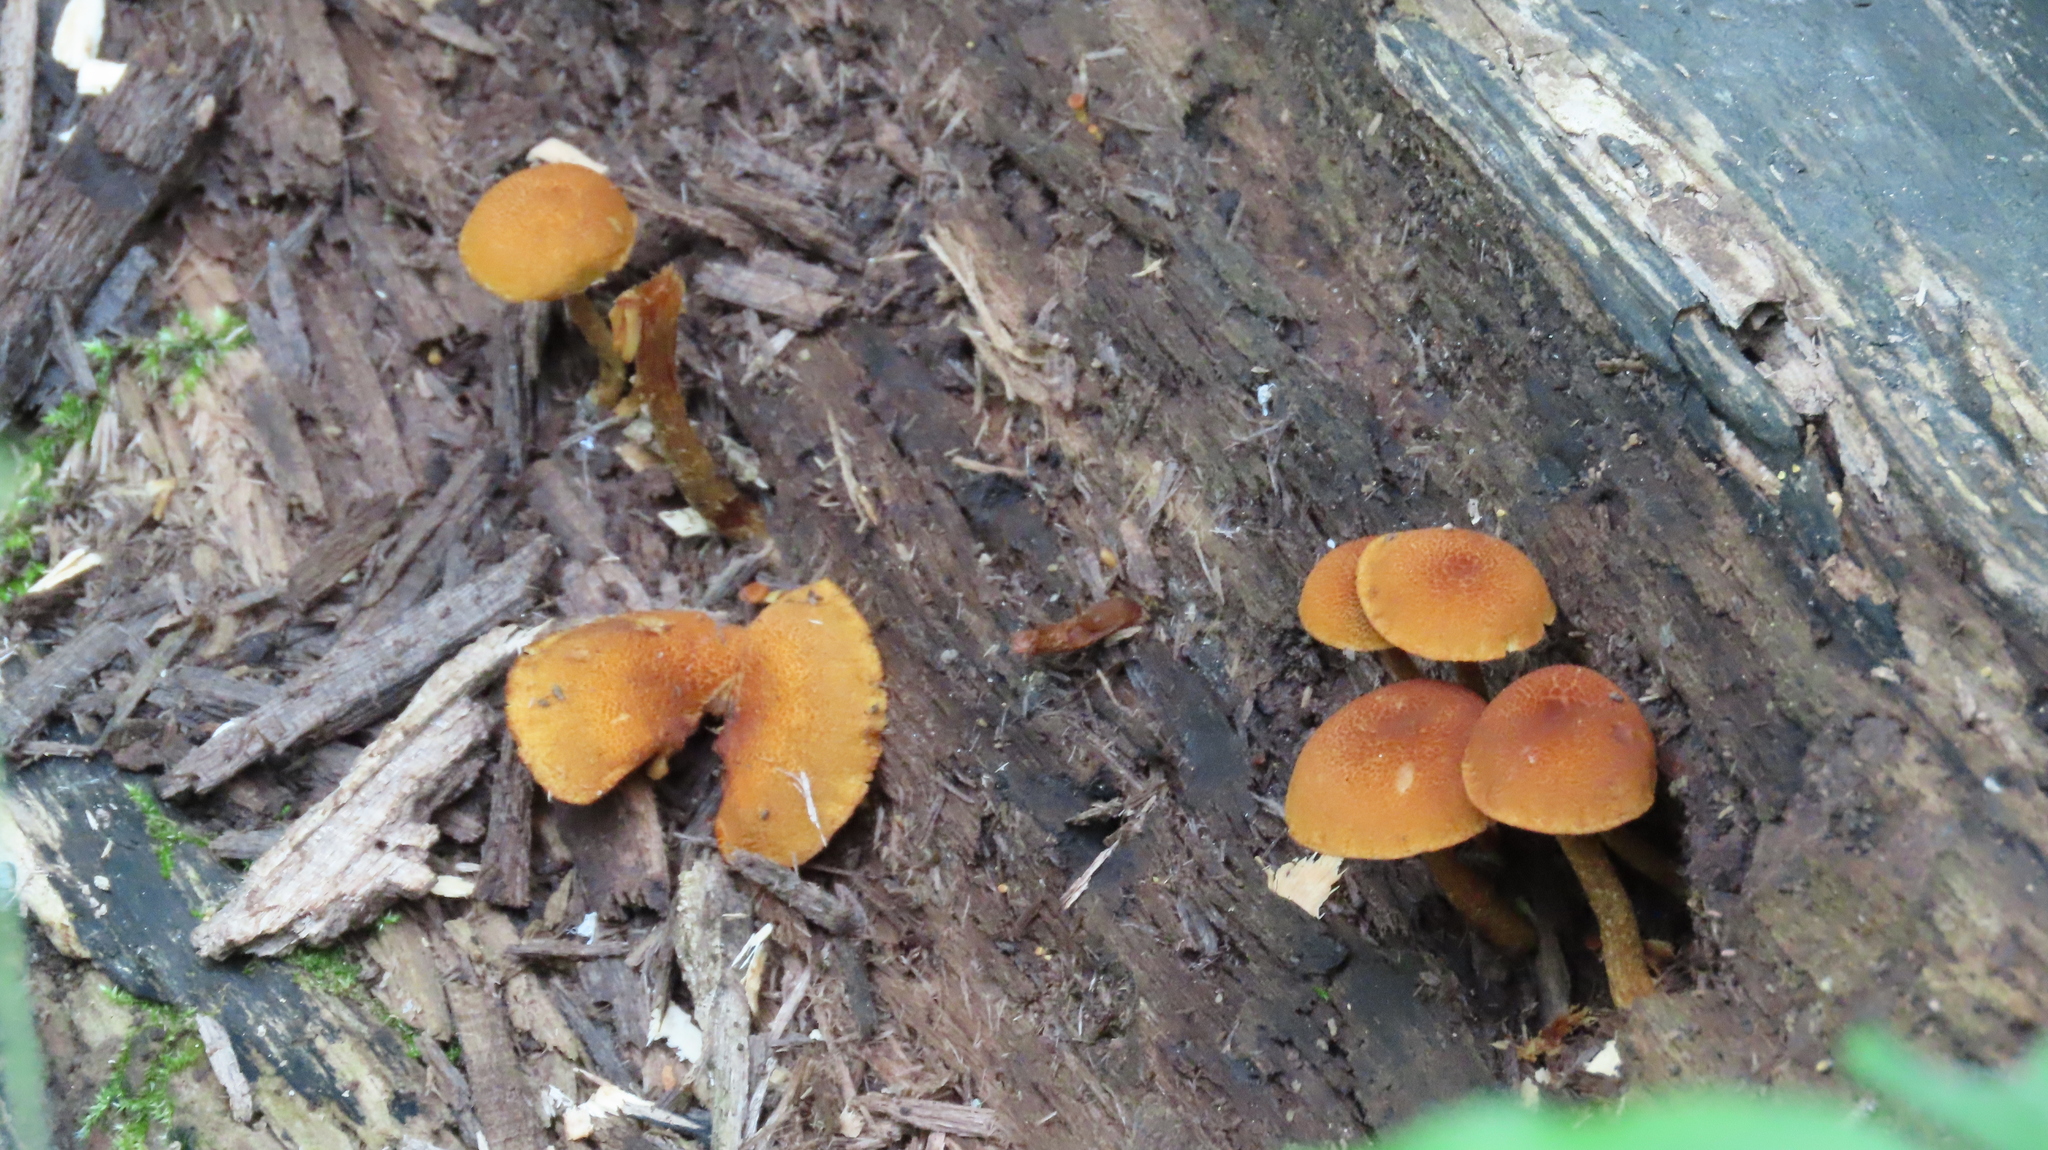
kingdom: Fungi
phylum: Basidiomycota
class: Agaricomycetes
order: Agaricales
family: Tubariaceae
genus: Phaeomarasmius
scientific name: Phaeomarasmius proximans
